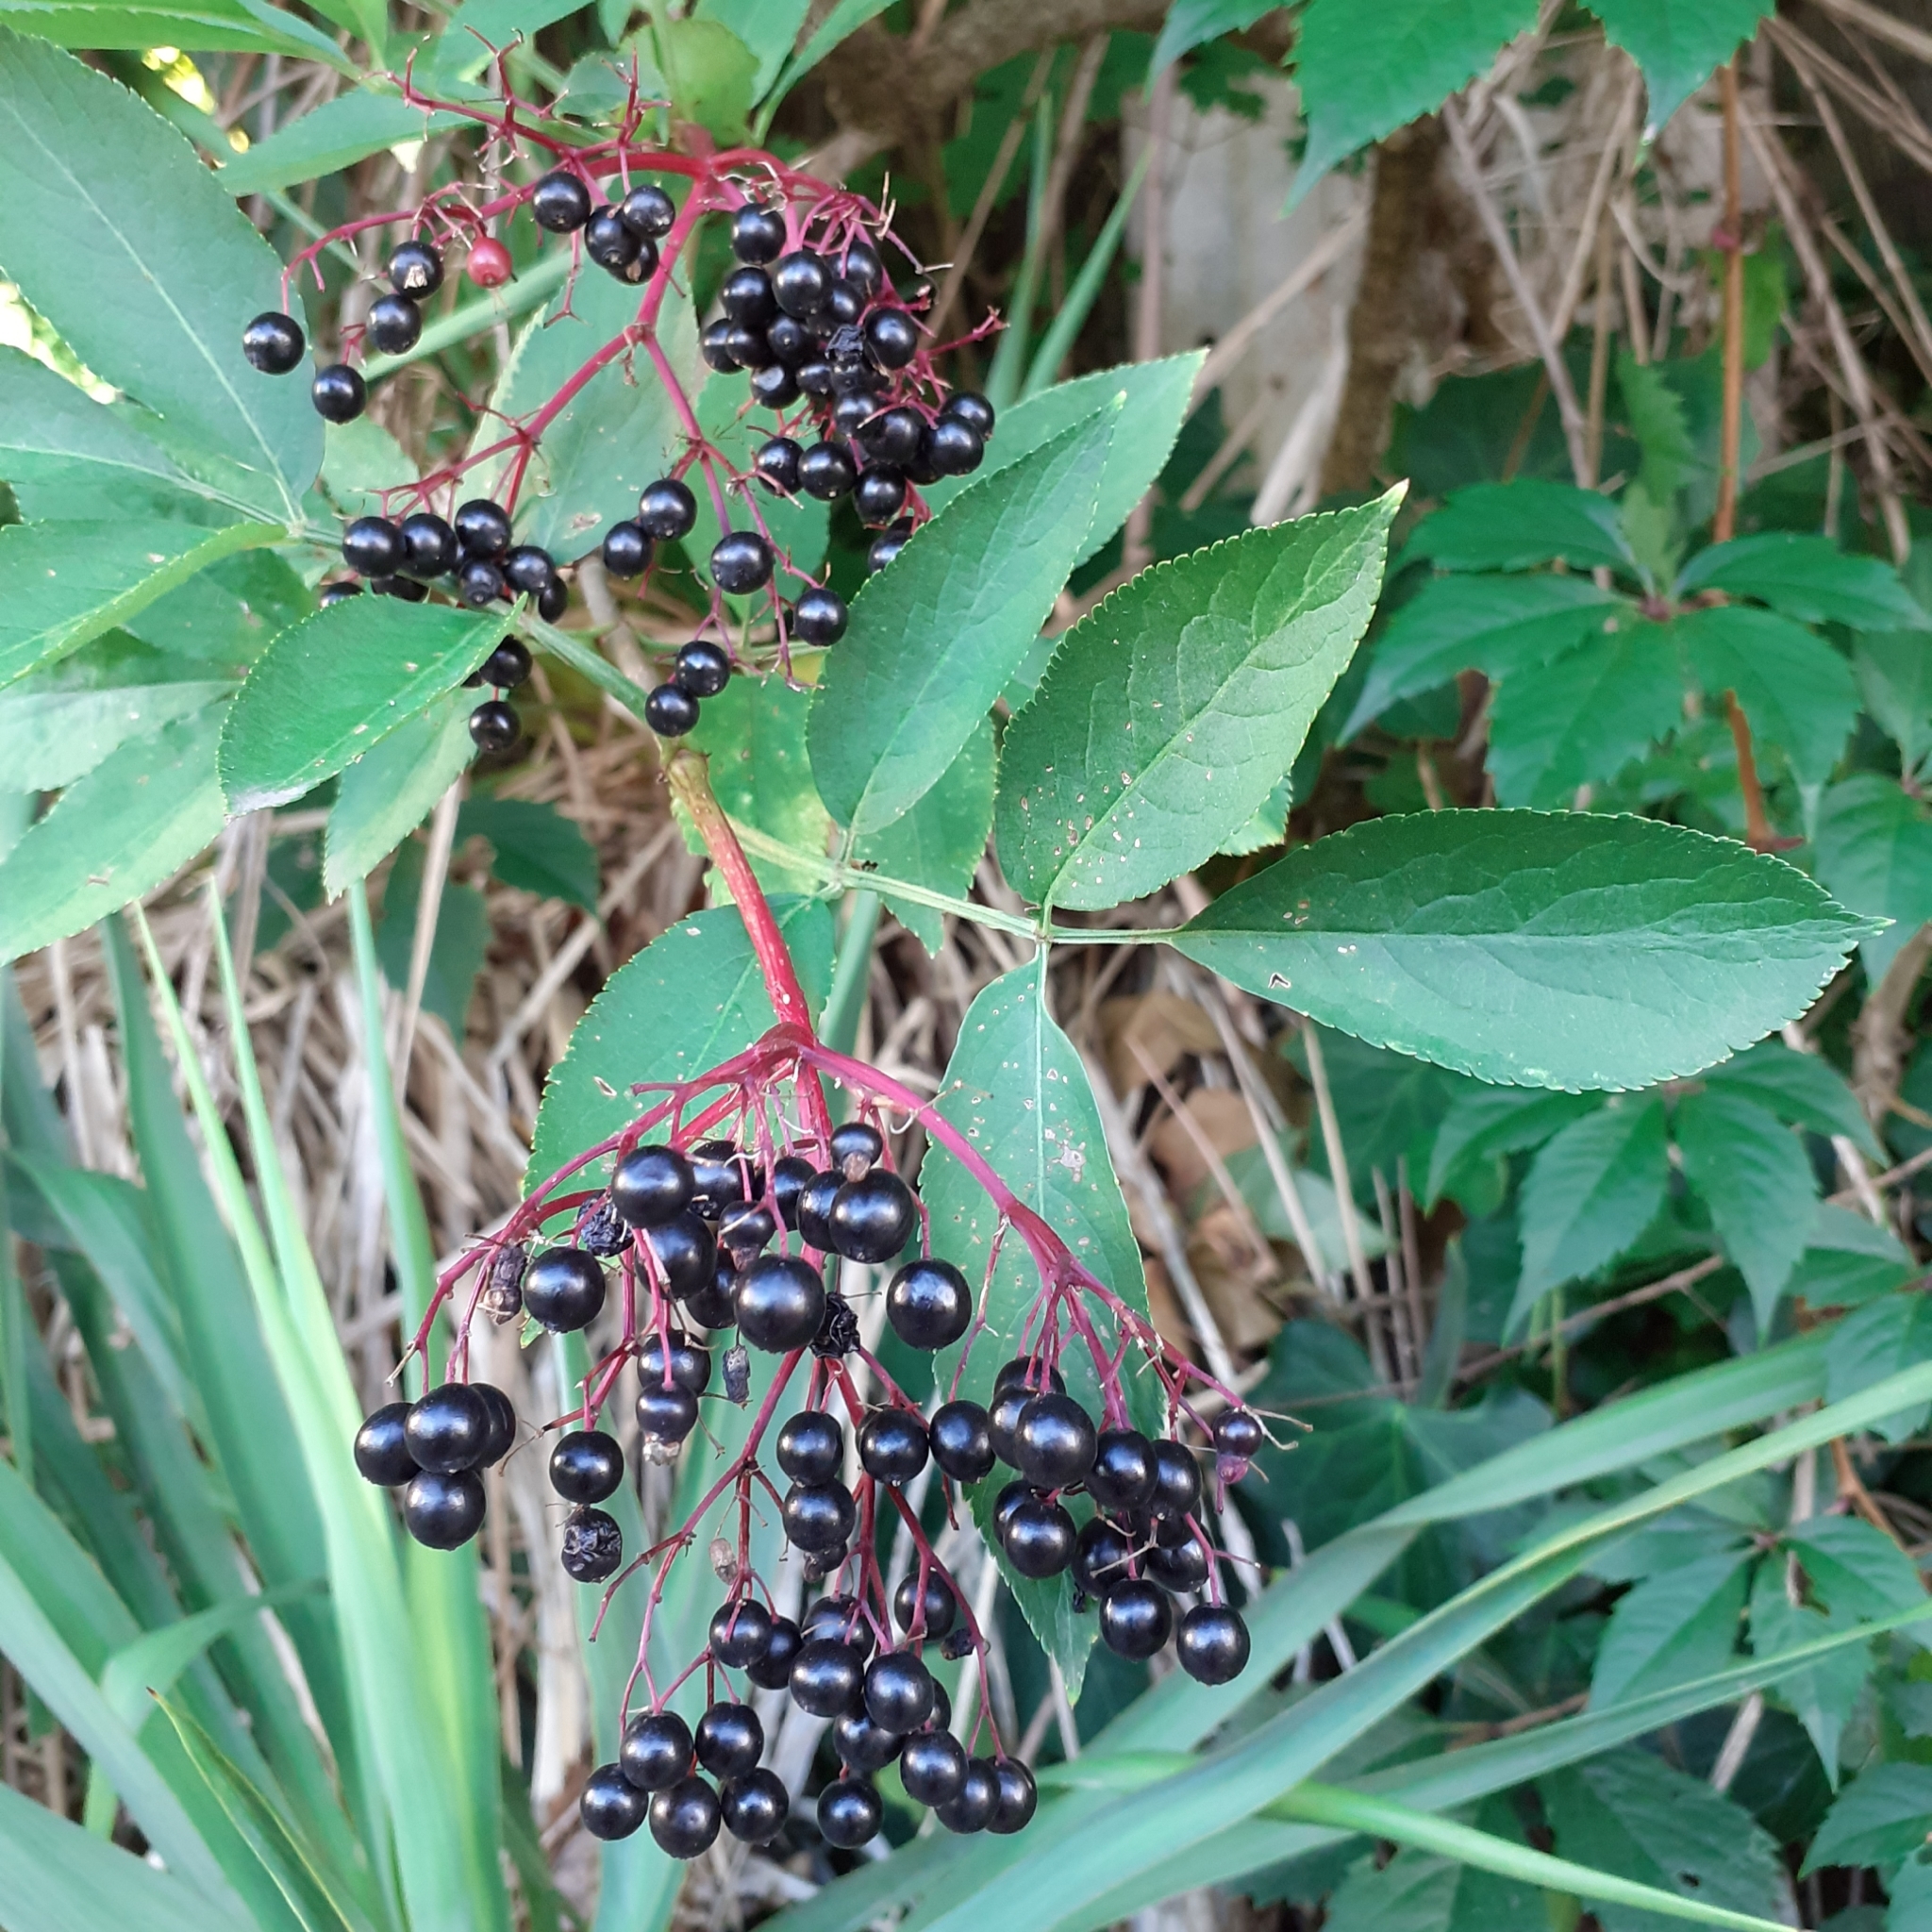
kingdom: Plantae
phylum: Tracheophyta
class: Magnoliopsida
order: Dipsacales
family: Viburnaceae
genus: Sambucus
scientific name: Sambucus nigra
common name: Elder
